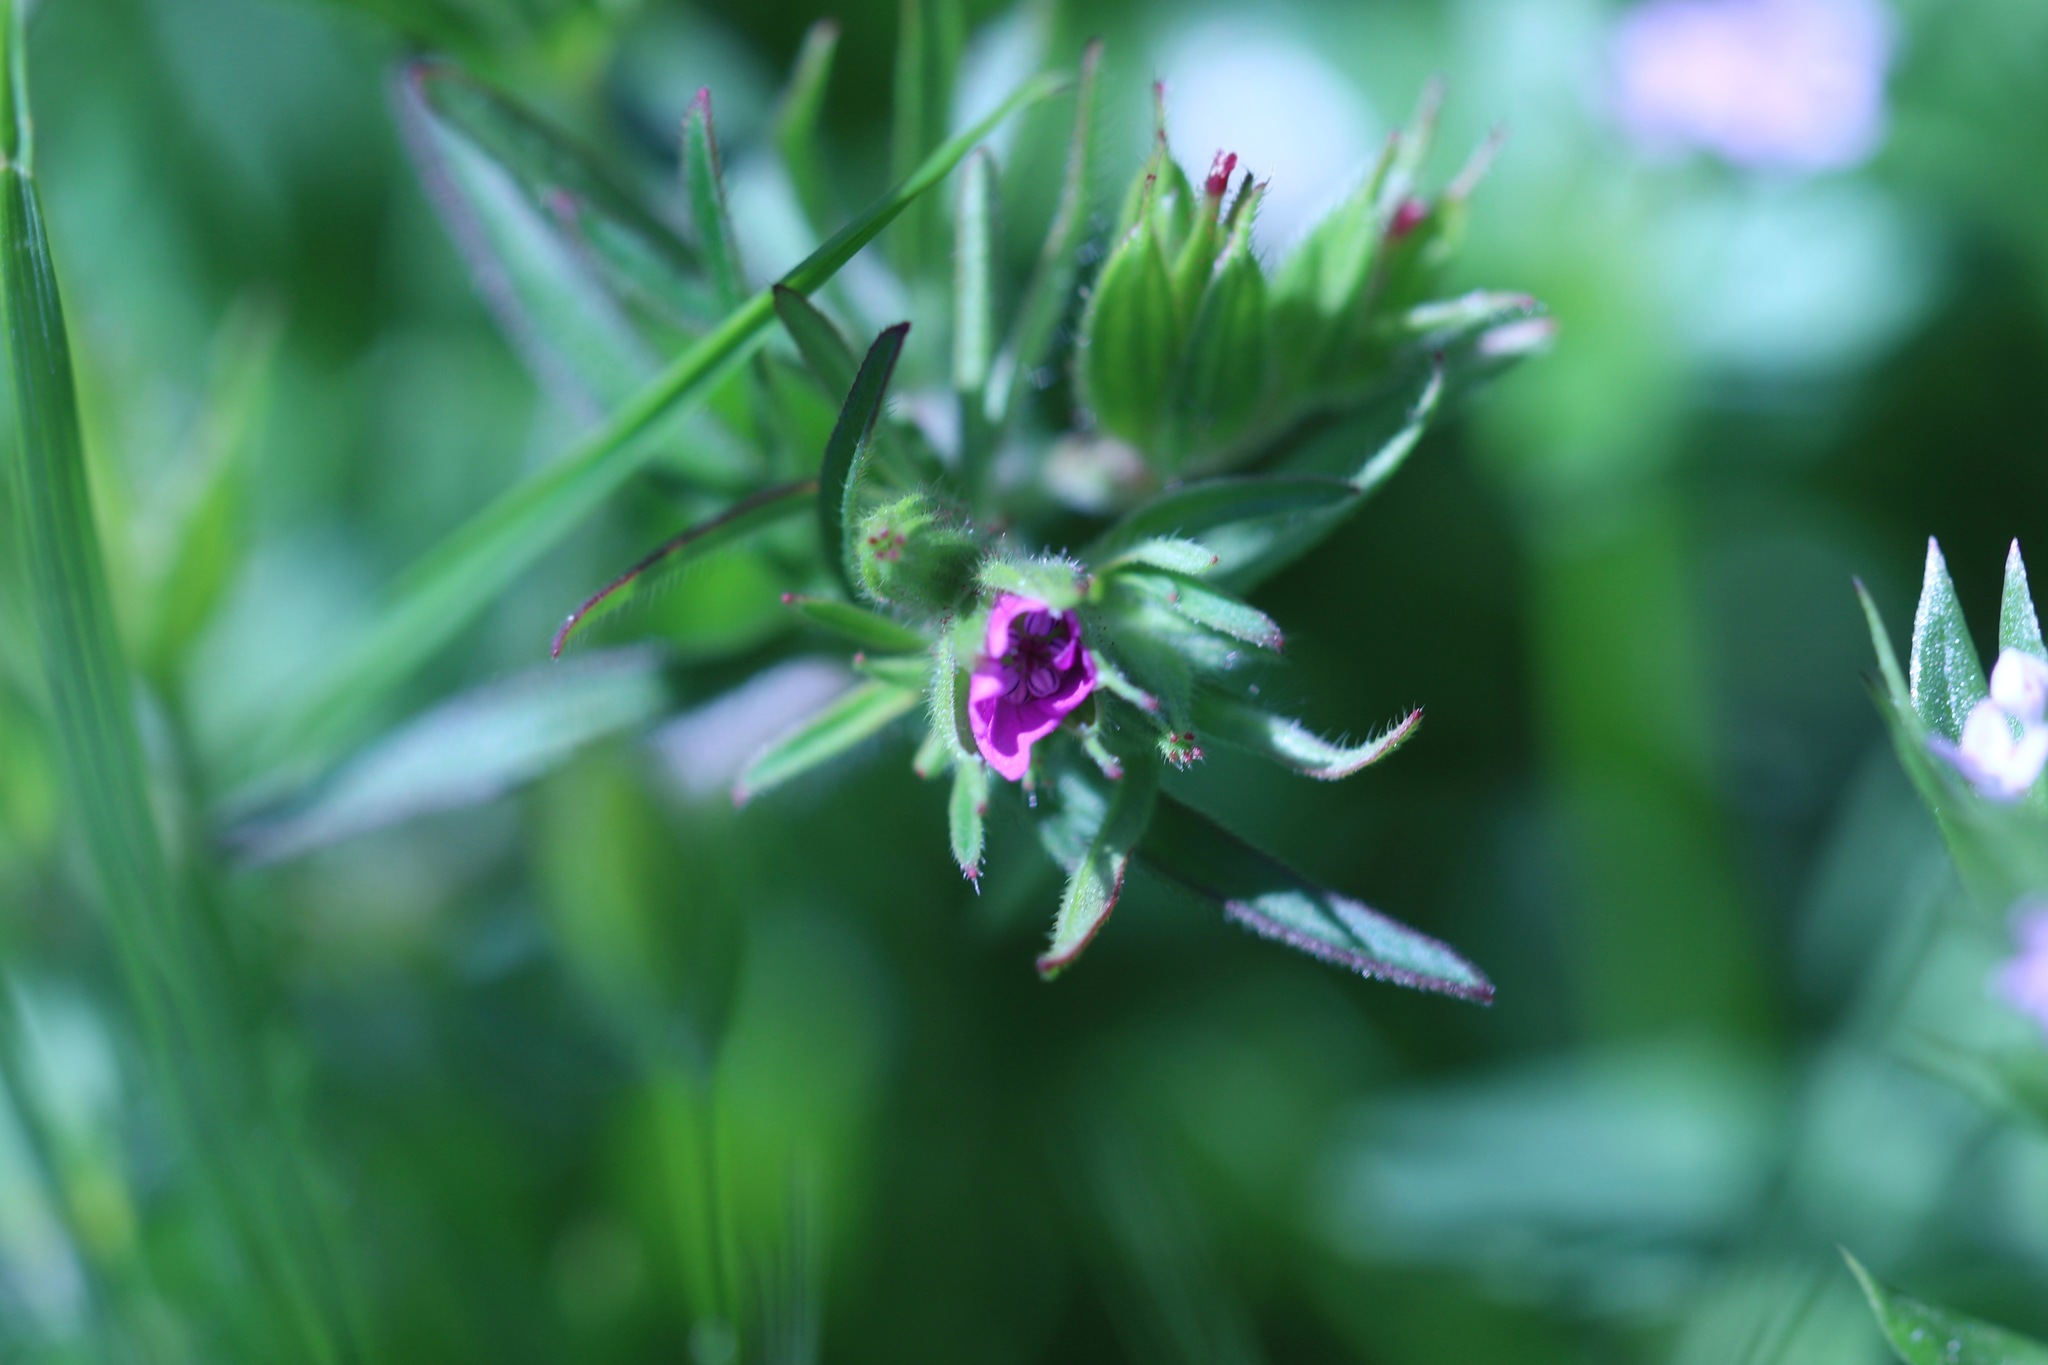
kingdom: Plantae
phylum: Tracheophyta
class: Magnoliopsida
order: Geraniales
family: Geraniaceae
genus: Geranium
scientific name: Geranium dissectum
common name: Cut-leaved crane's-bill
